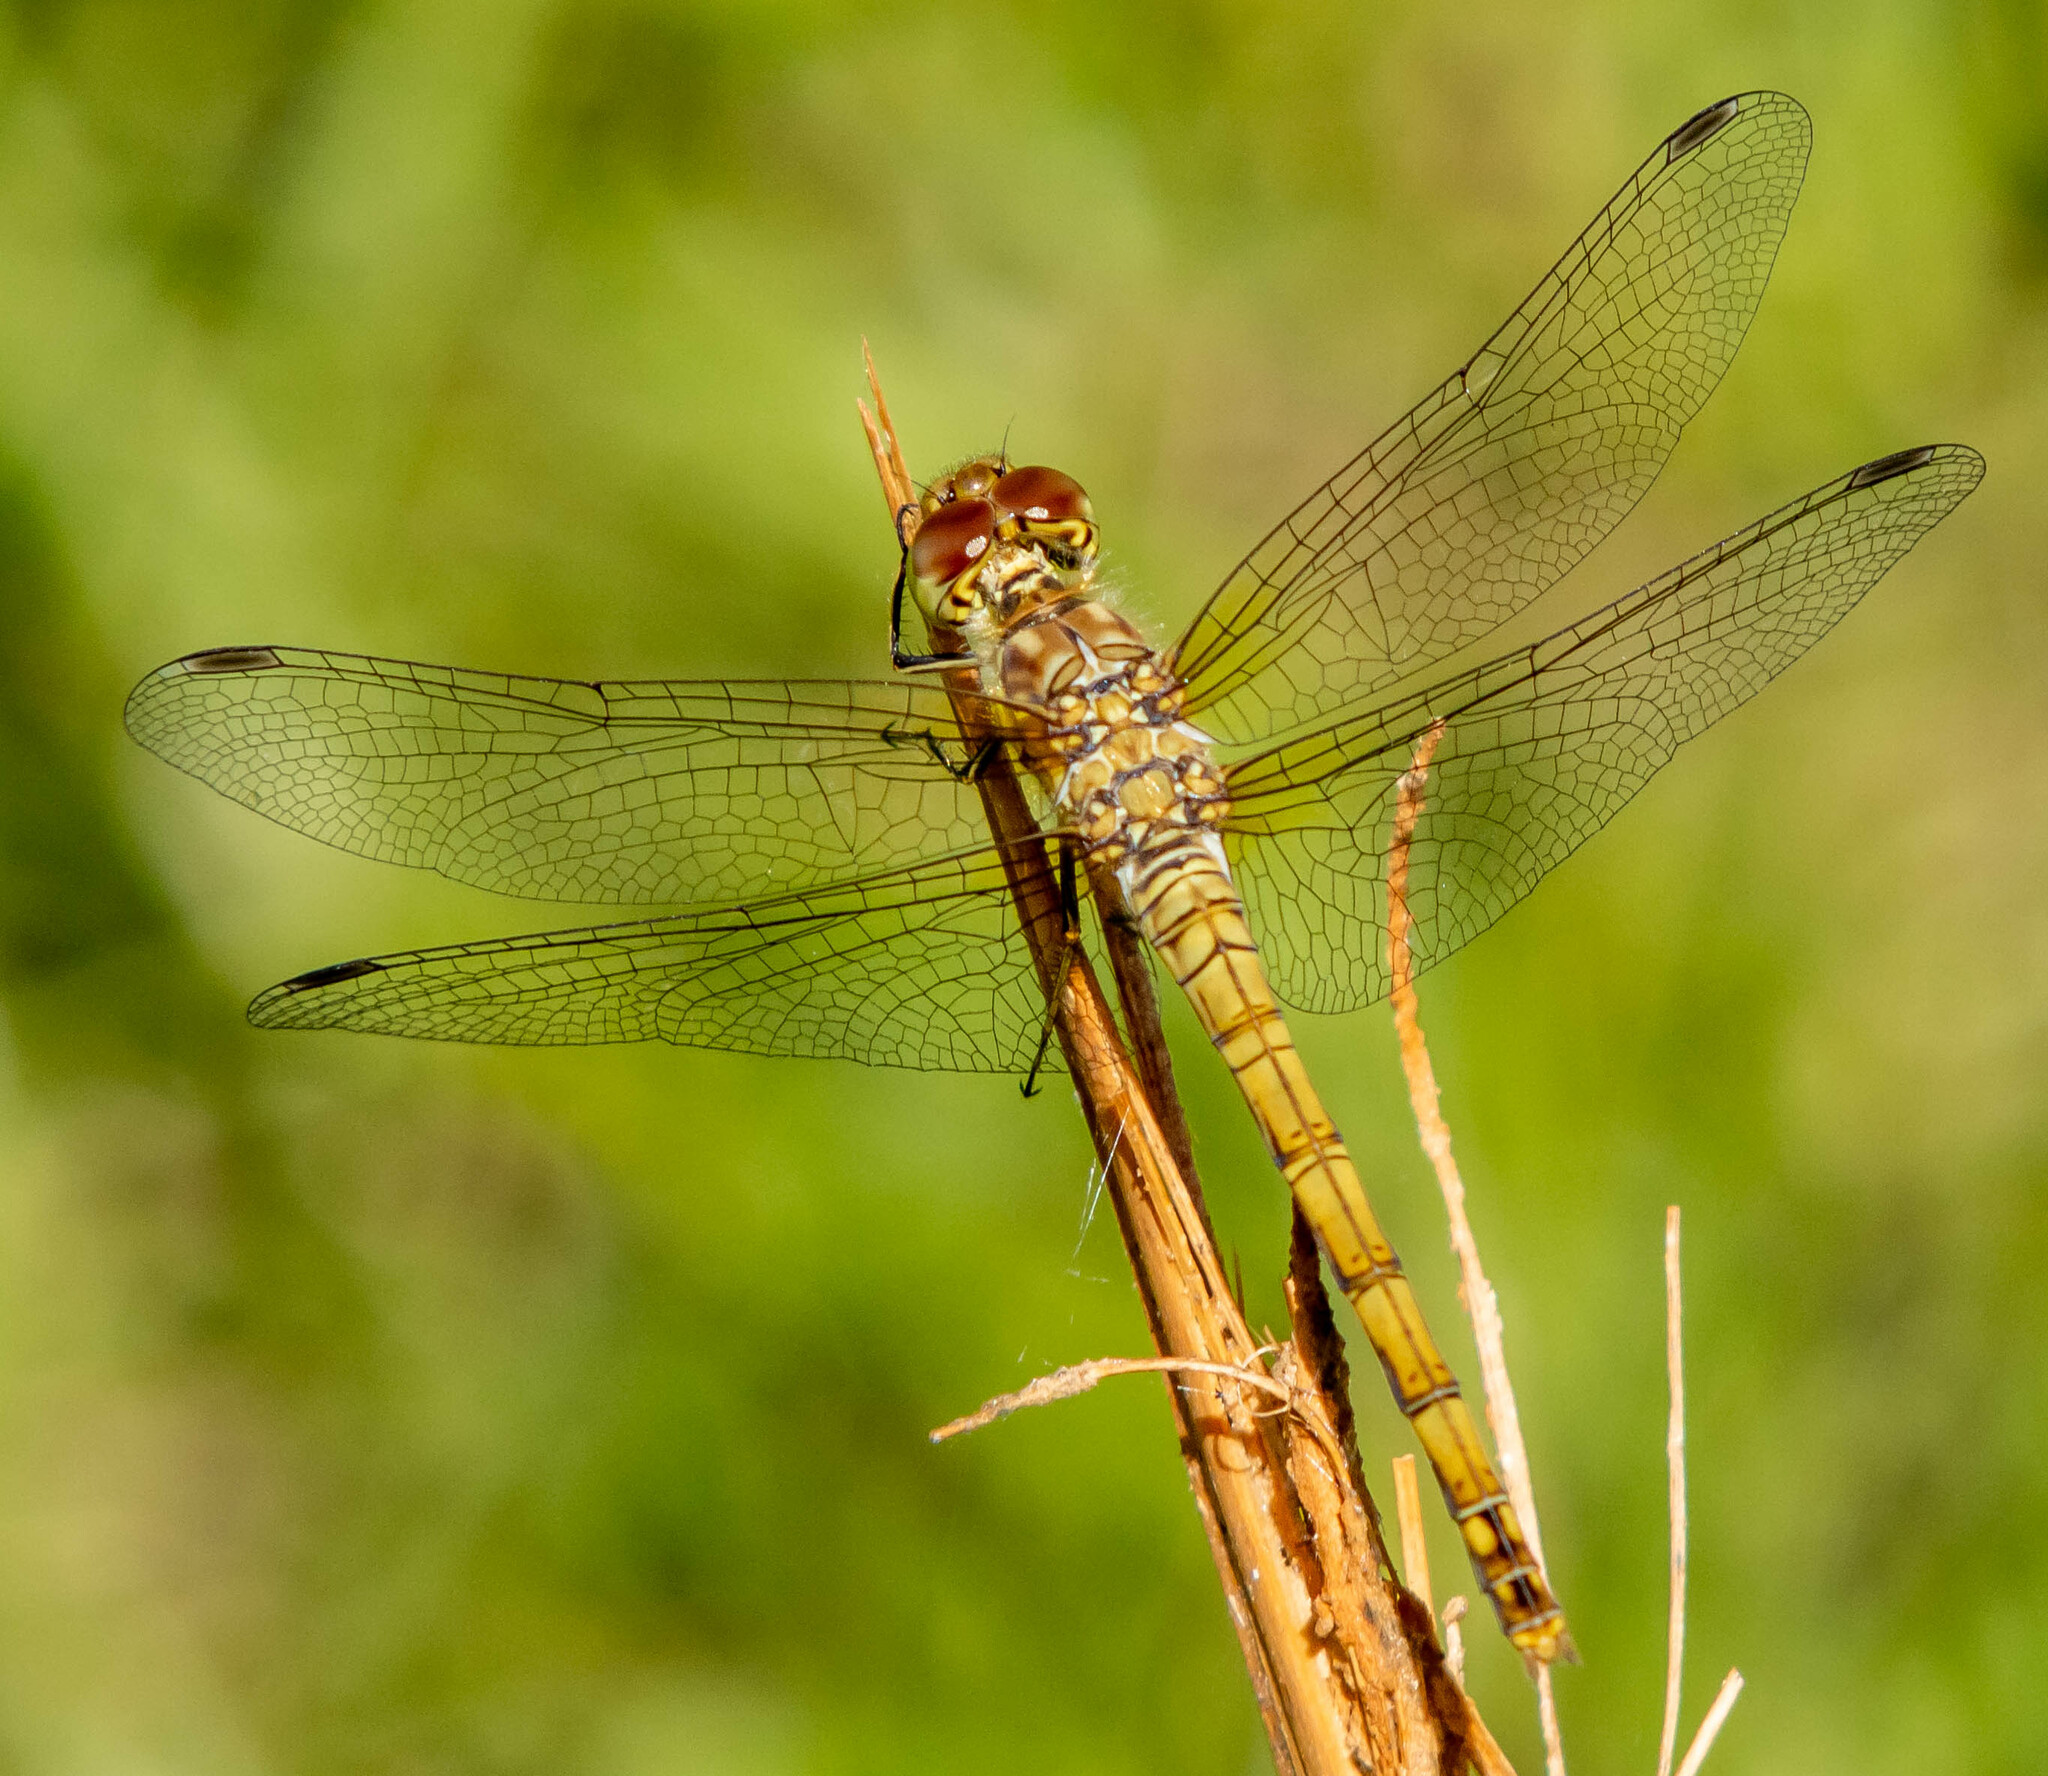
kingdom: Animalia
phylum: Arthropoda
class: Insecta
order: Odonata
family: Libellulidae
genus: Sympetrum
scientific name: Sympetrum striolatum
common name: Common darter
